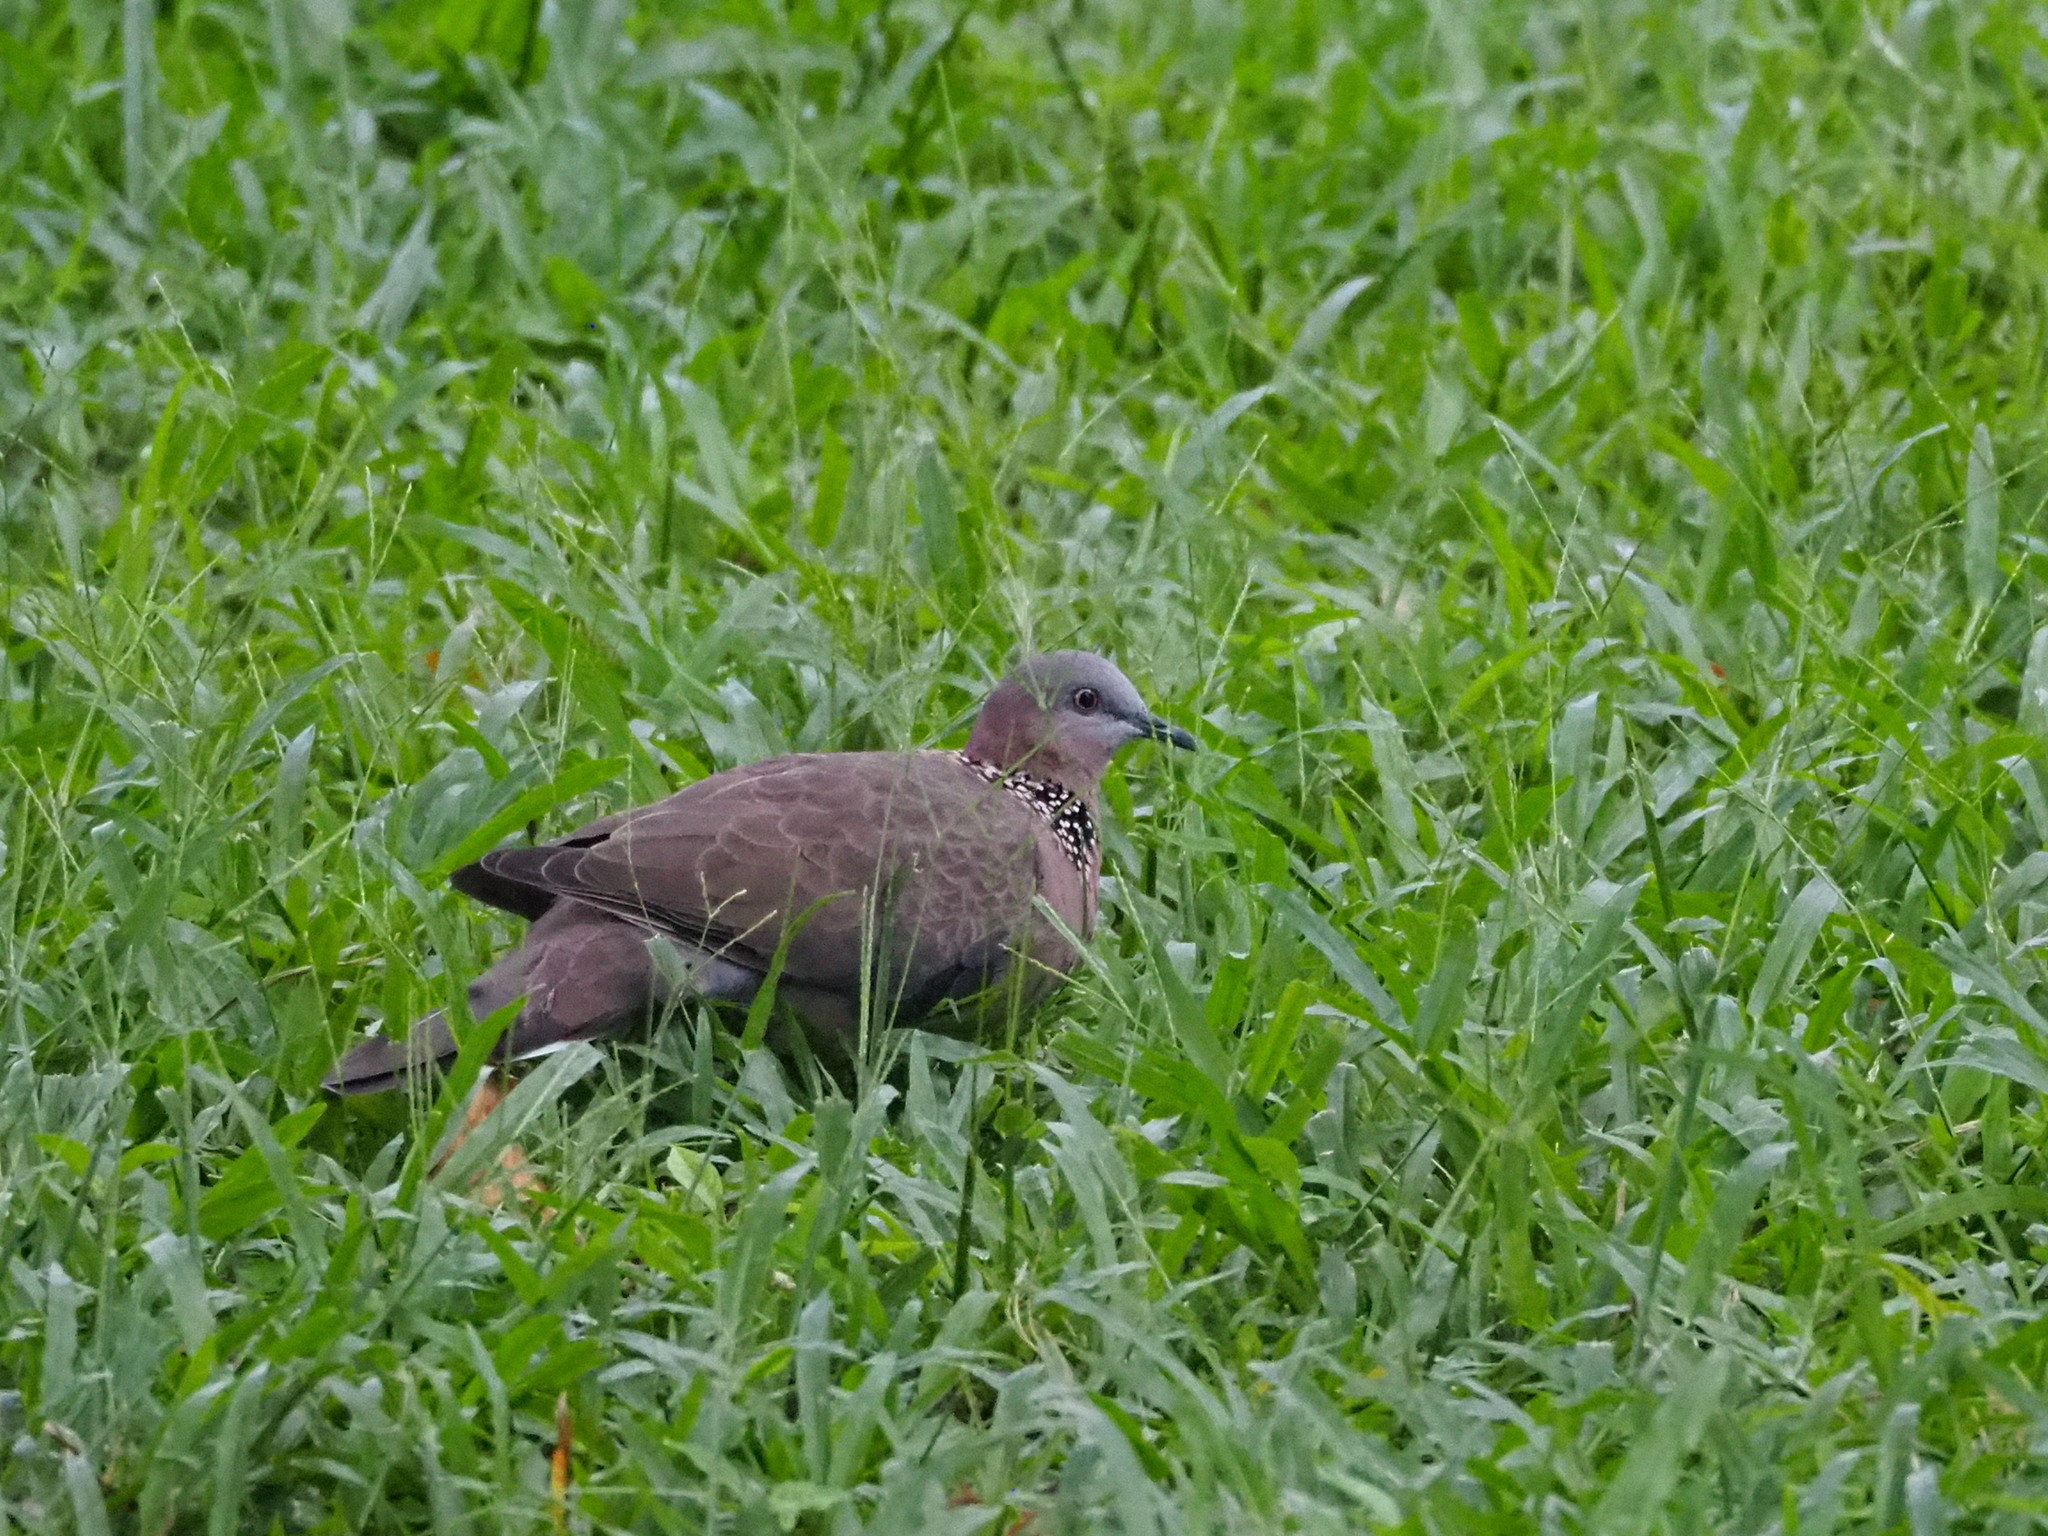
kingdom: Animalia
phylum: Chordata
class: Aves
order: Columbiformes
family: Columbidae
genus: Spilopelia
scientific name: Spilopelia chinensis
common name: Spotted dove
